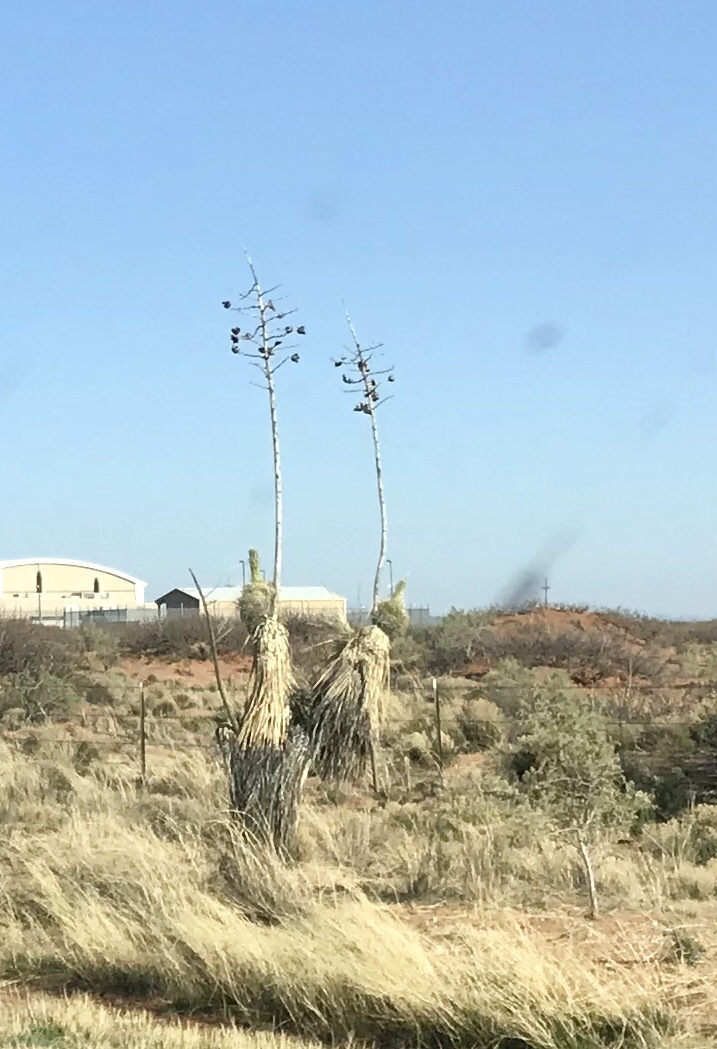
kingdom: Plantae
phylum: Tracheophyta
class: Liliopsida
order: Asparagales
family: Asparagaceae
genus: Yucca
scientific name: Yucca elata
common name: Palmella
